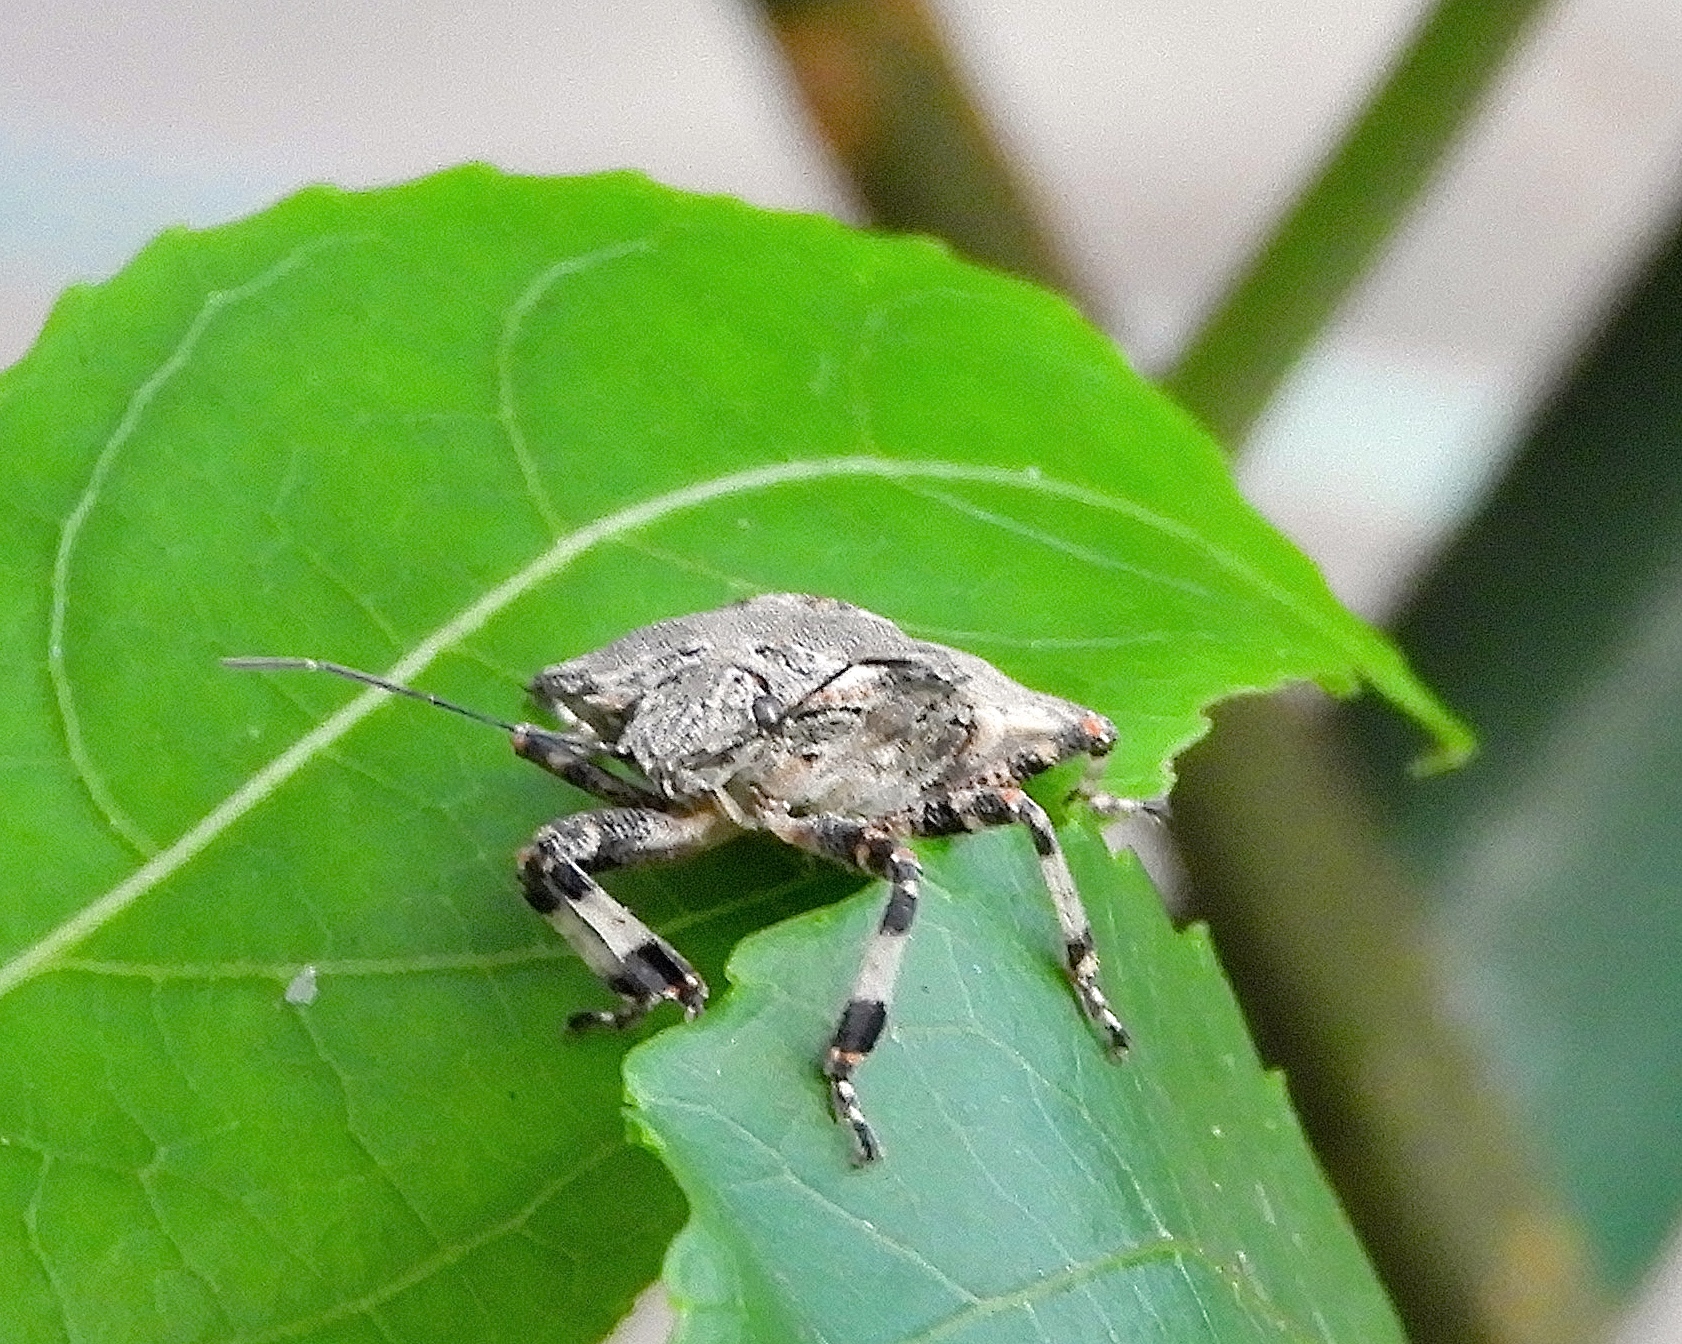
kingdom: Animalia
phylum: Arthropoda
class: Insecta
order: Hemiptera
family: Pentatomidae
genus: Brochymena
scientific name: Brochymena
